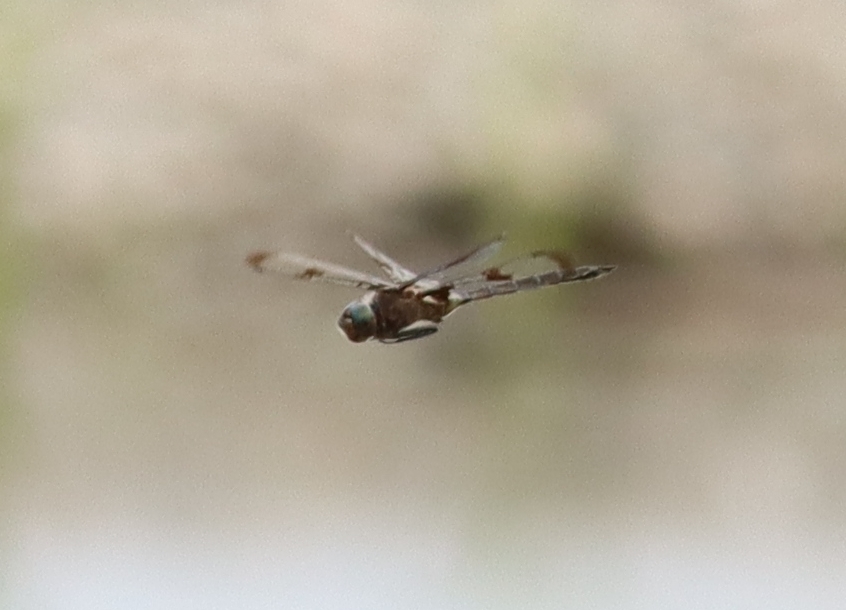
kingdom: Animalia
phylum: Arthropoda
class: Insecta
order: Odonata
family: Corduliidae
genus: Epitheca
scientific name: Epitheca princeps
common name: Prince baskettail
